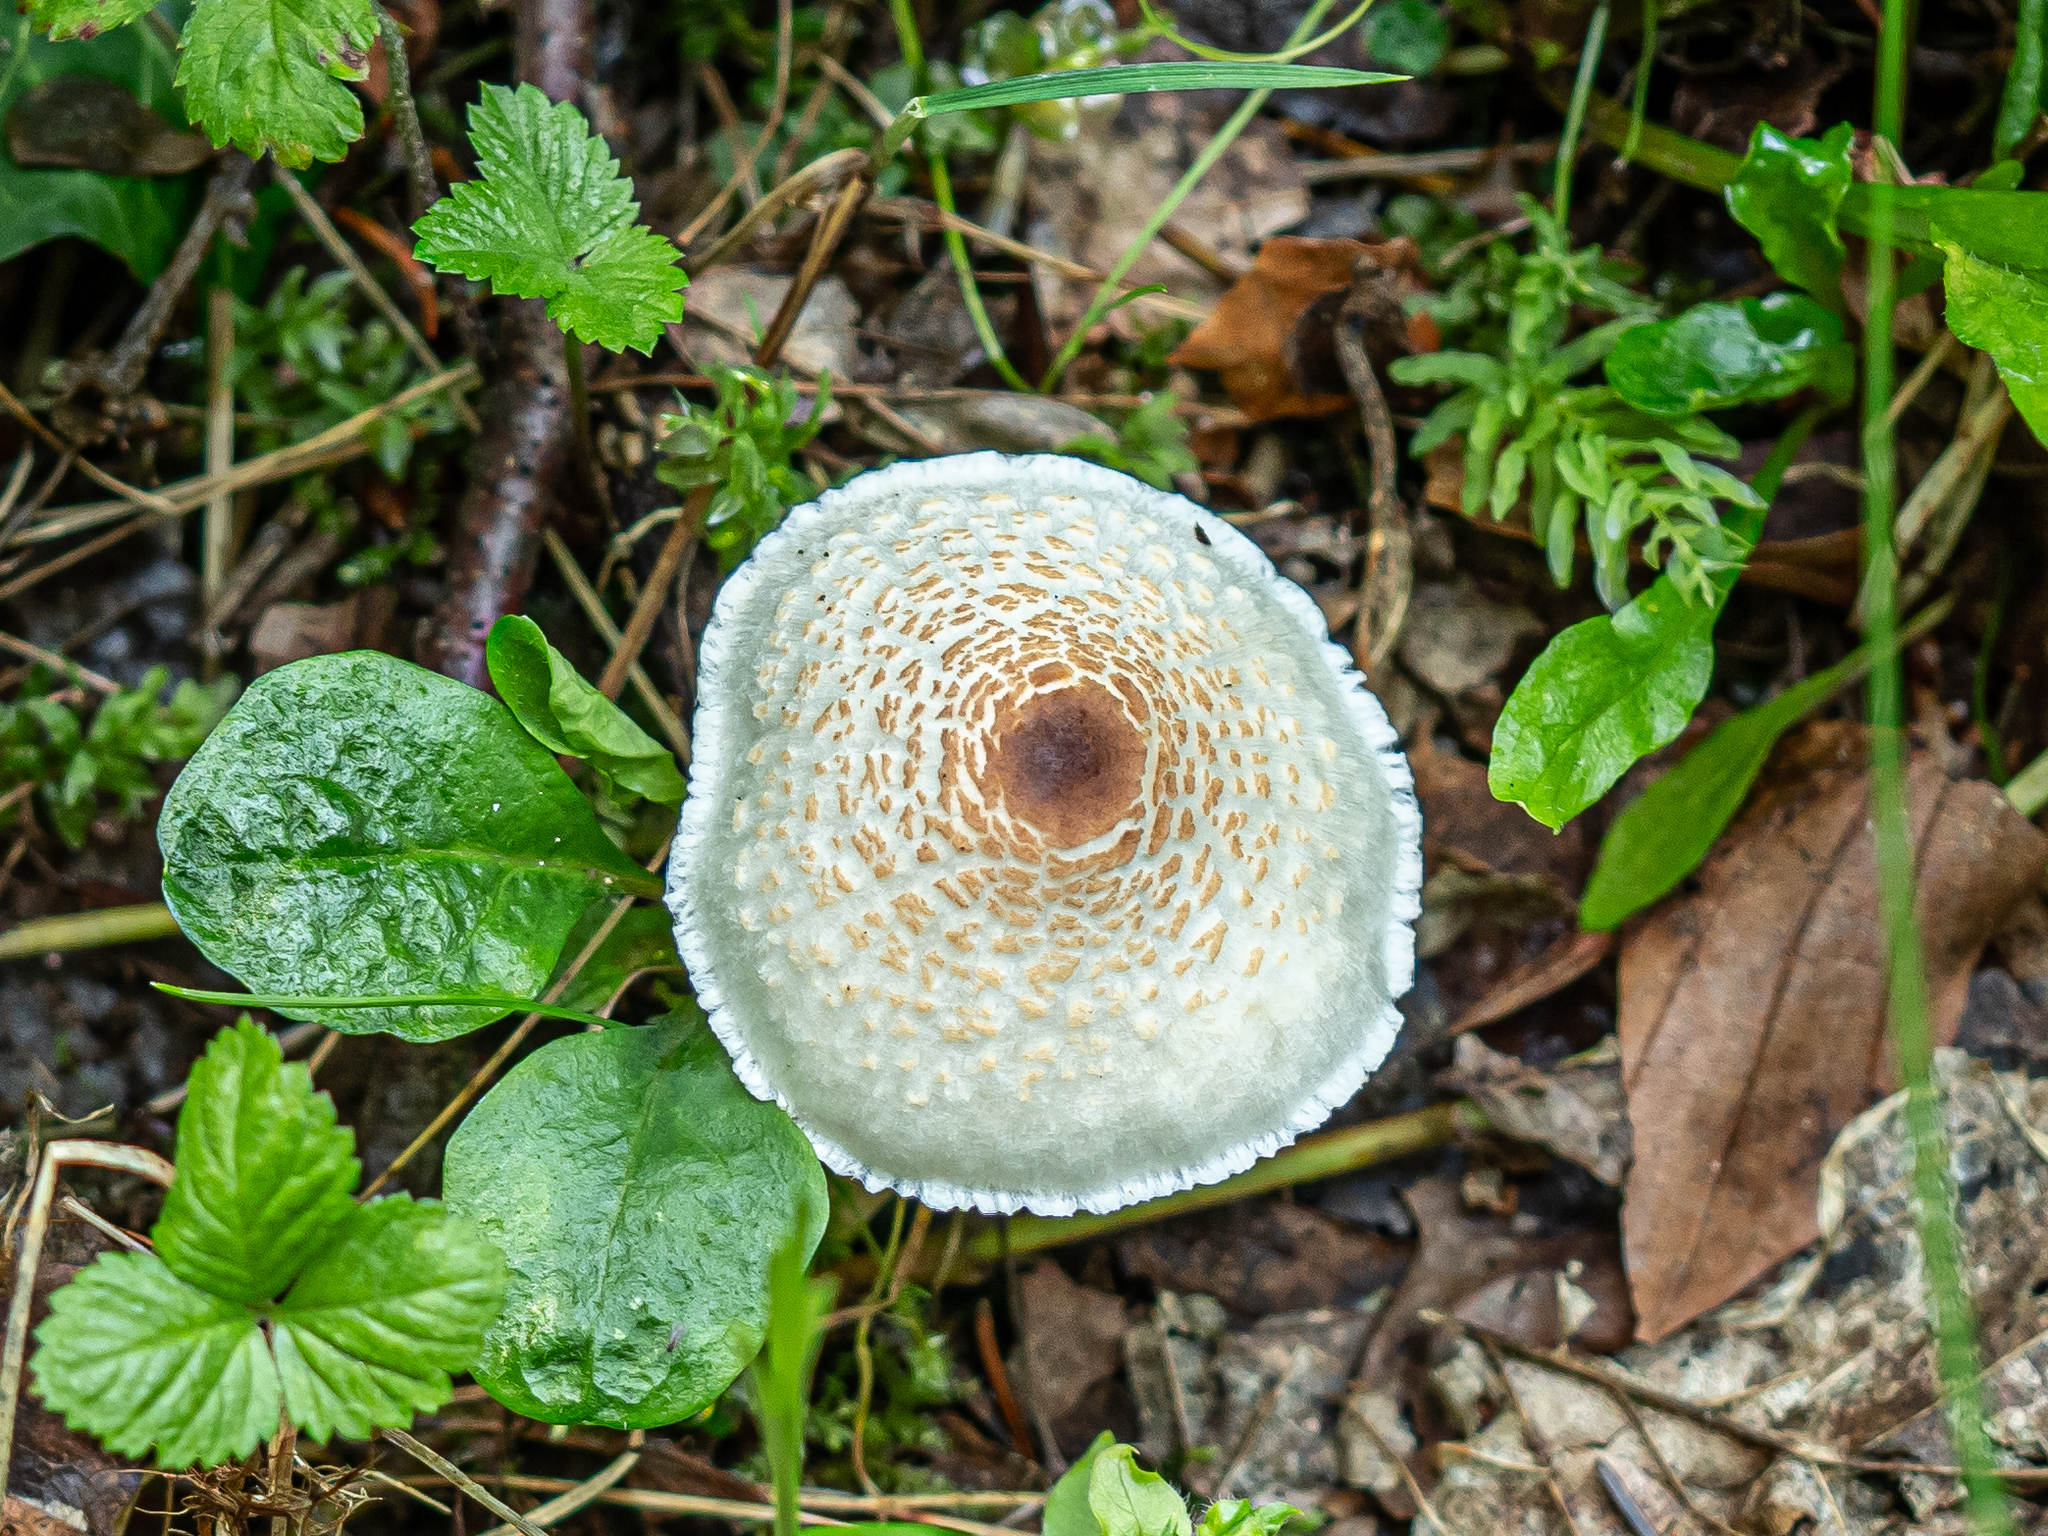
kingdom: Fungi
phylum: Basidiomycota
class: Agaricomycetes
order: Agaricales
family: Agaricaceae
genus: Lepiota
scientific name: Lepiota cristata
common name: Stinking dapperling
